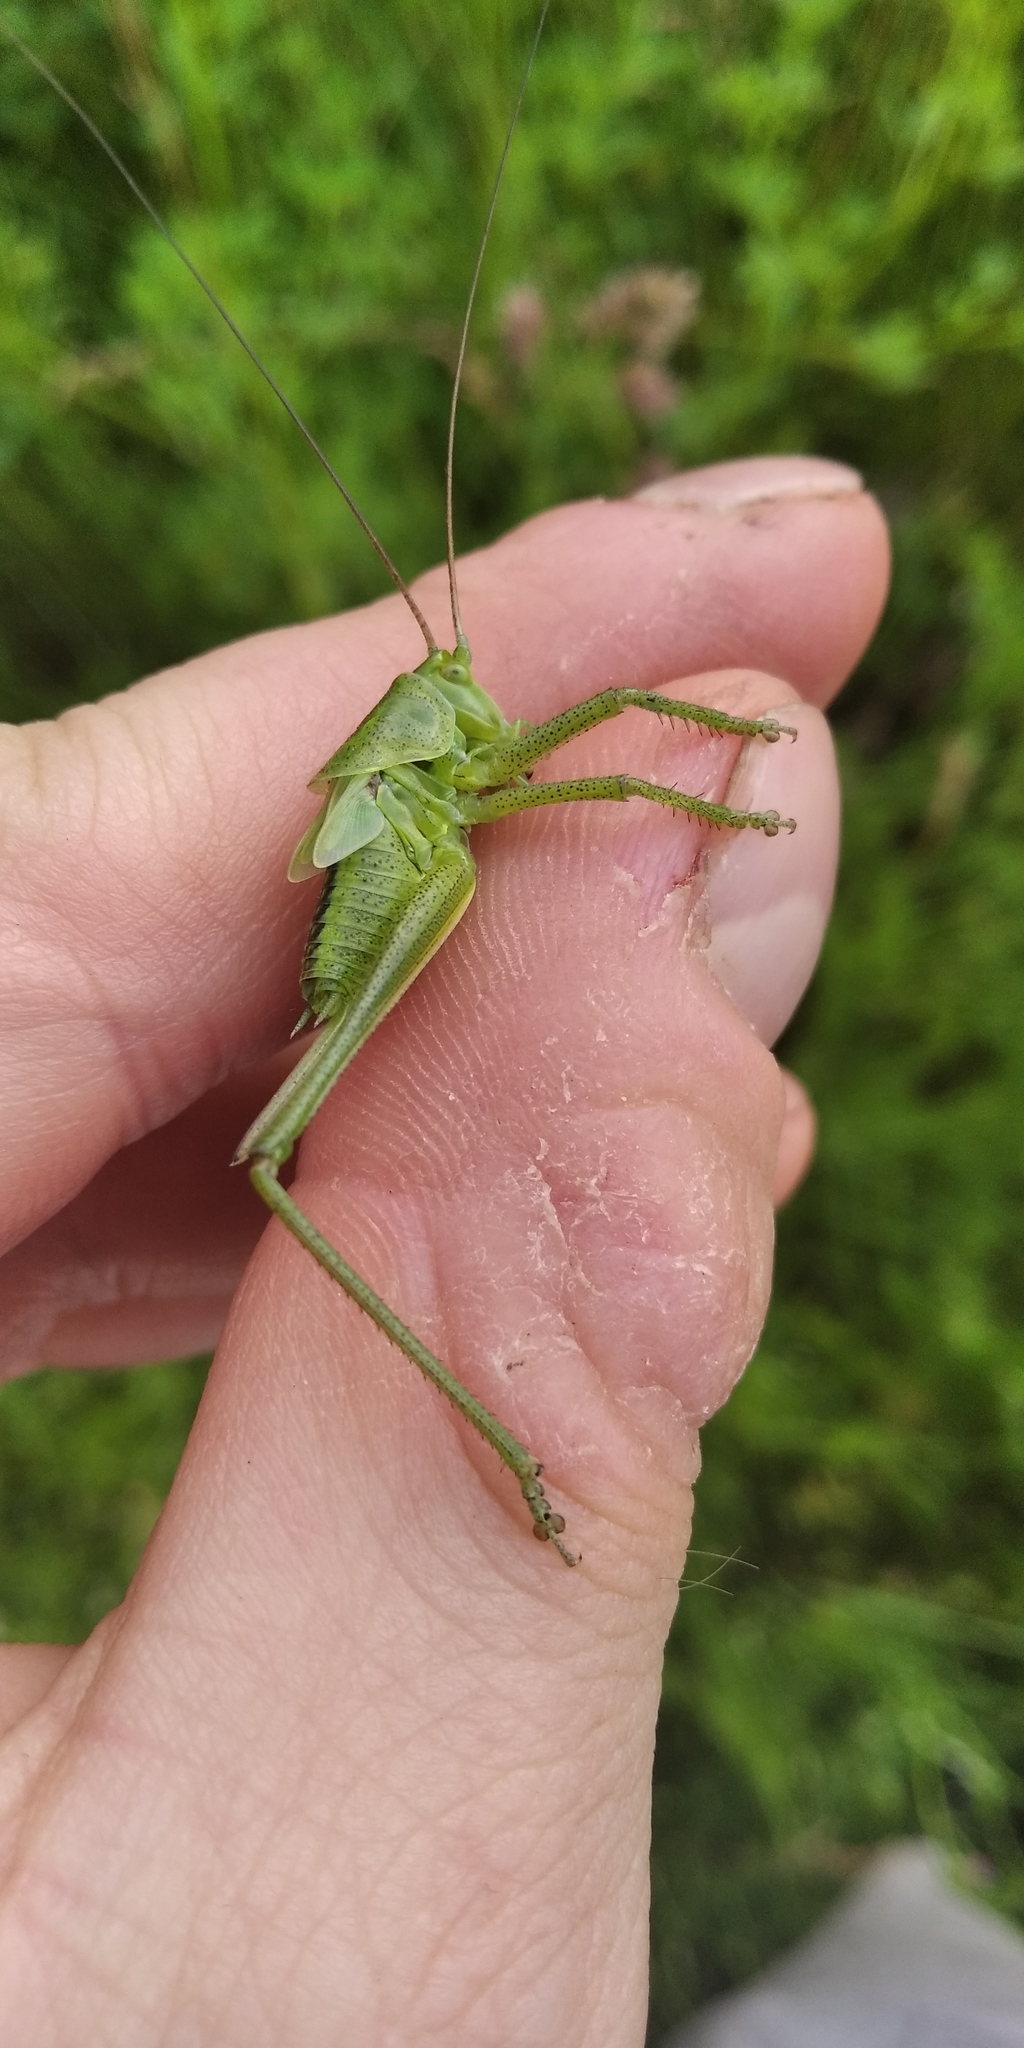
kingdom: Animalia
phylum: Arthropoda
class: Insecta
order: Orthoptera
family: Tettigoniidae
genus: Tettigonia
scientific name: Tettigonia viridissima
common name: Great green bush-cricket
